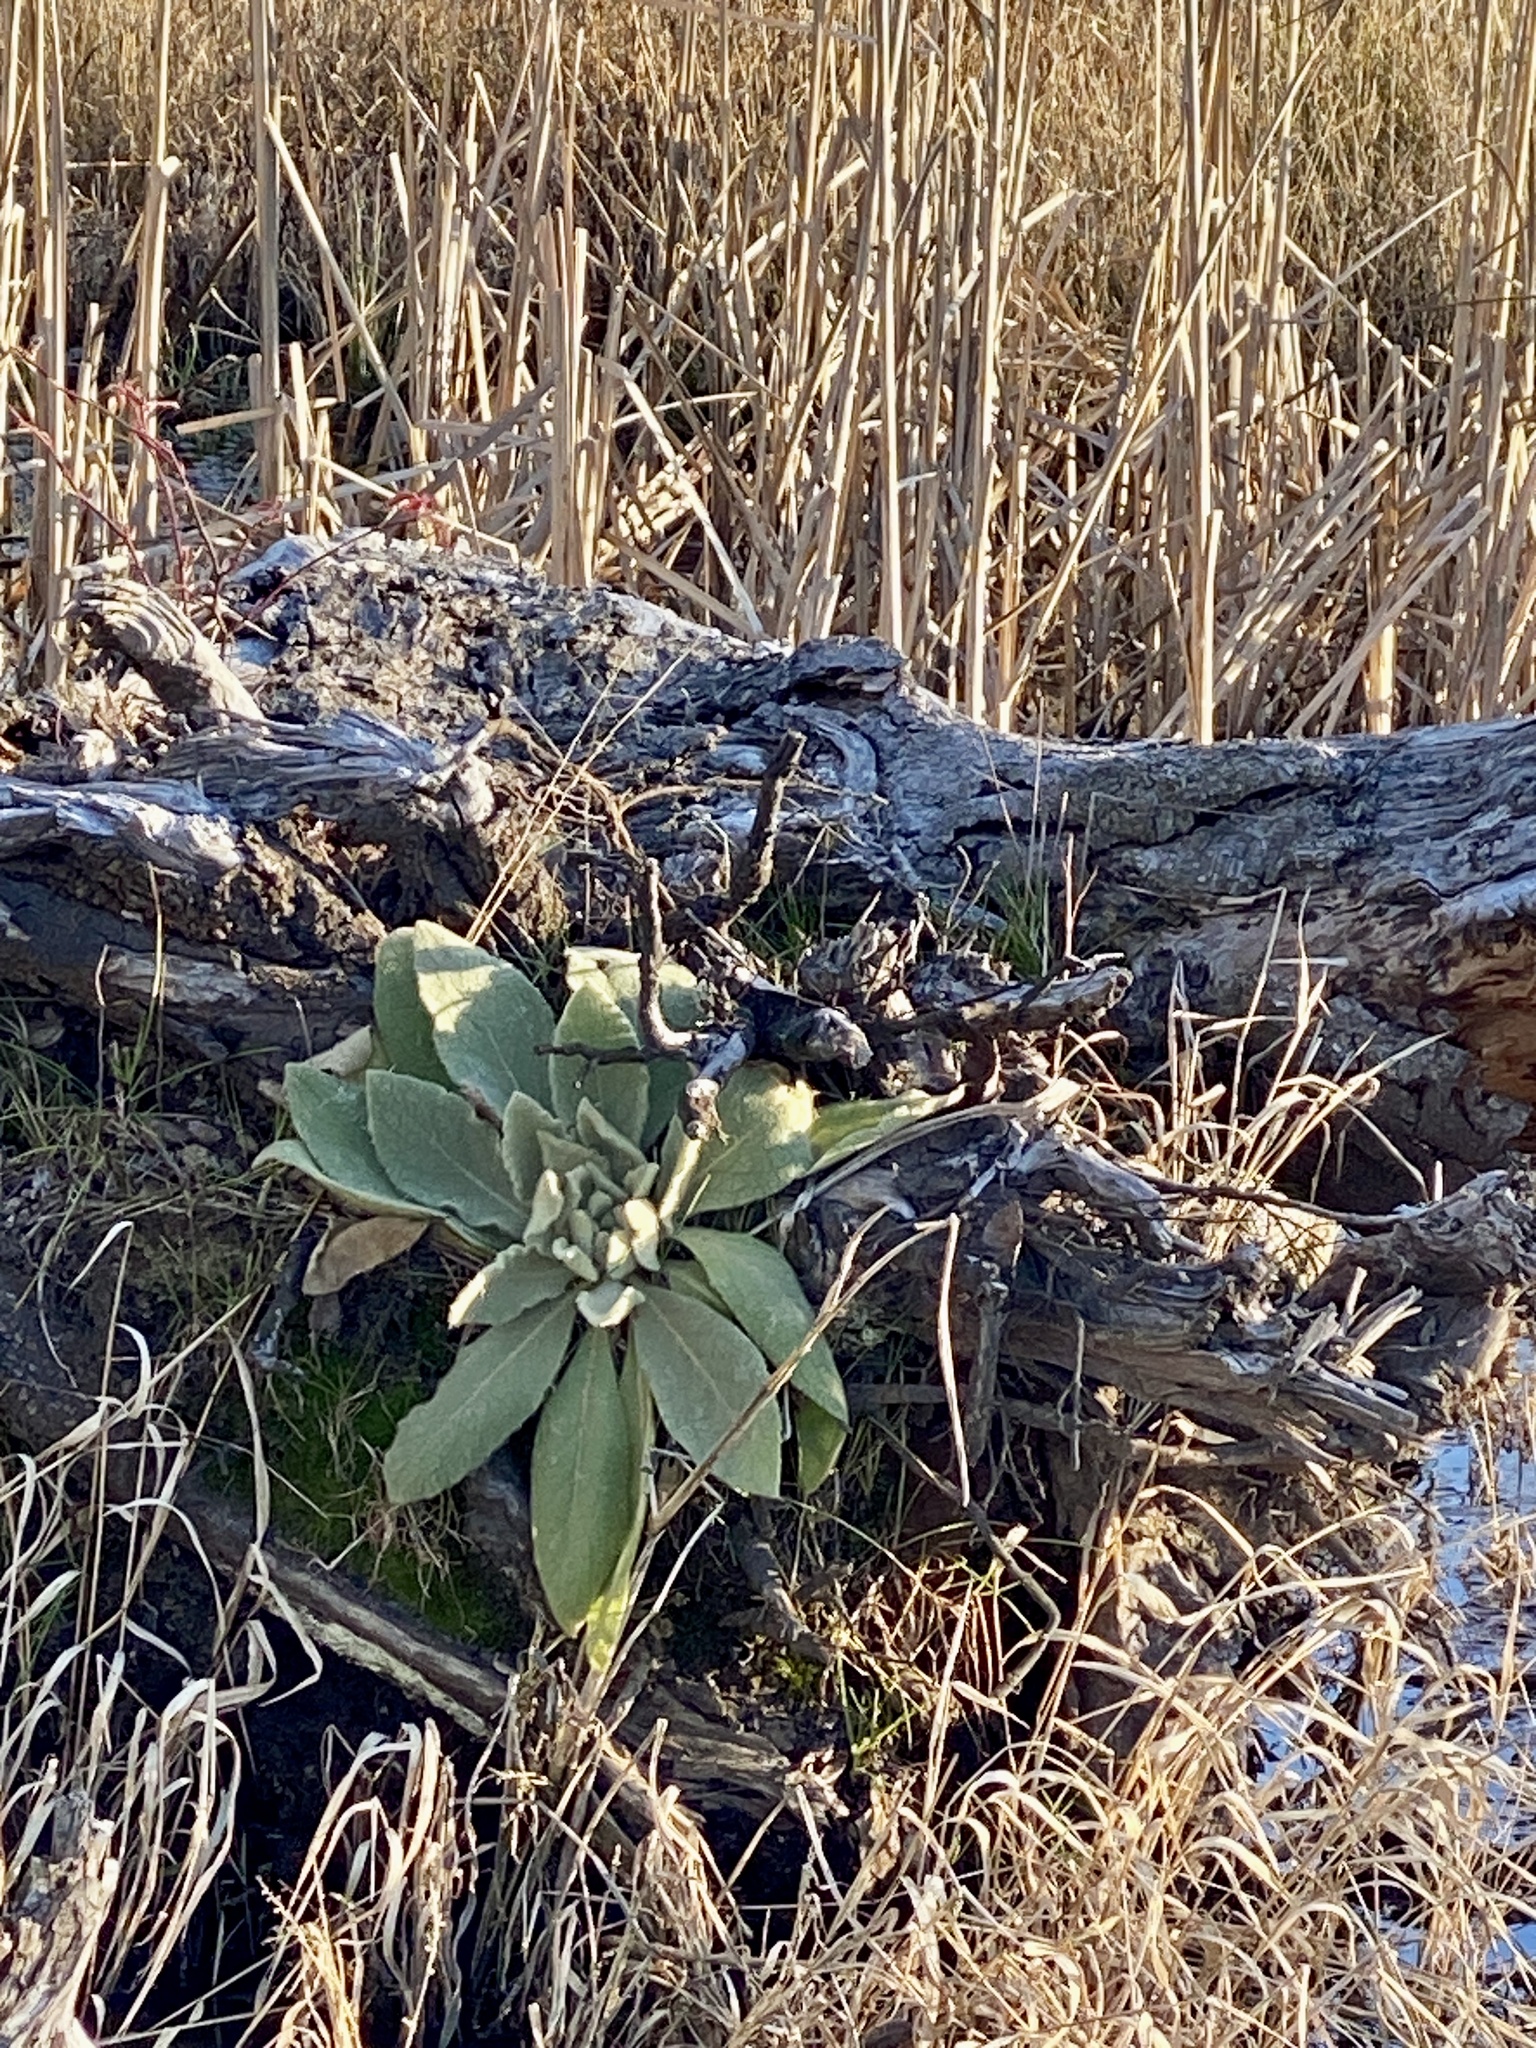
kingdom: Plantae
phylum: Tracheophyta
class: Magnoliopsida
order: Lamiales
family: Scrophulariaceae
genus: Verbascum
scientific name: Verbascum thapsus
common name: Common mullein
